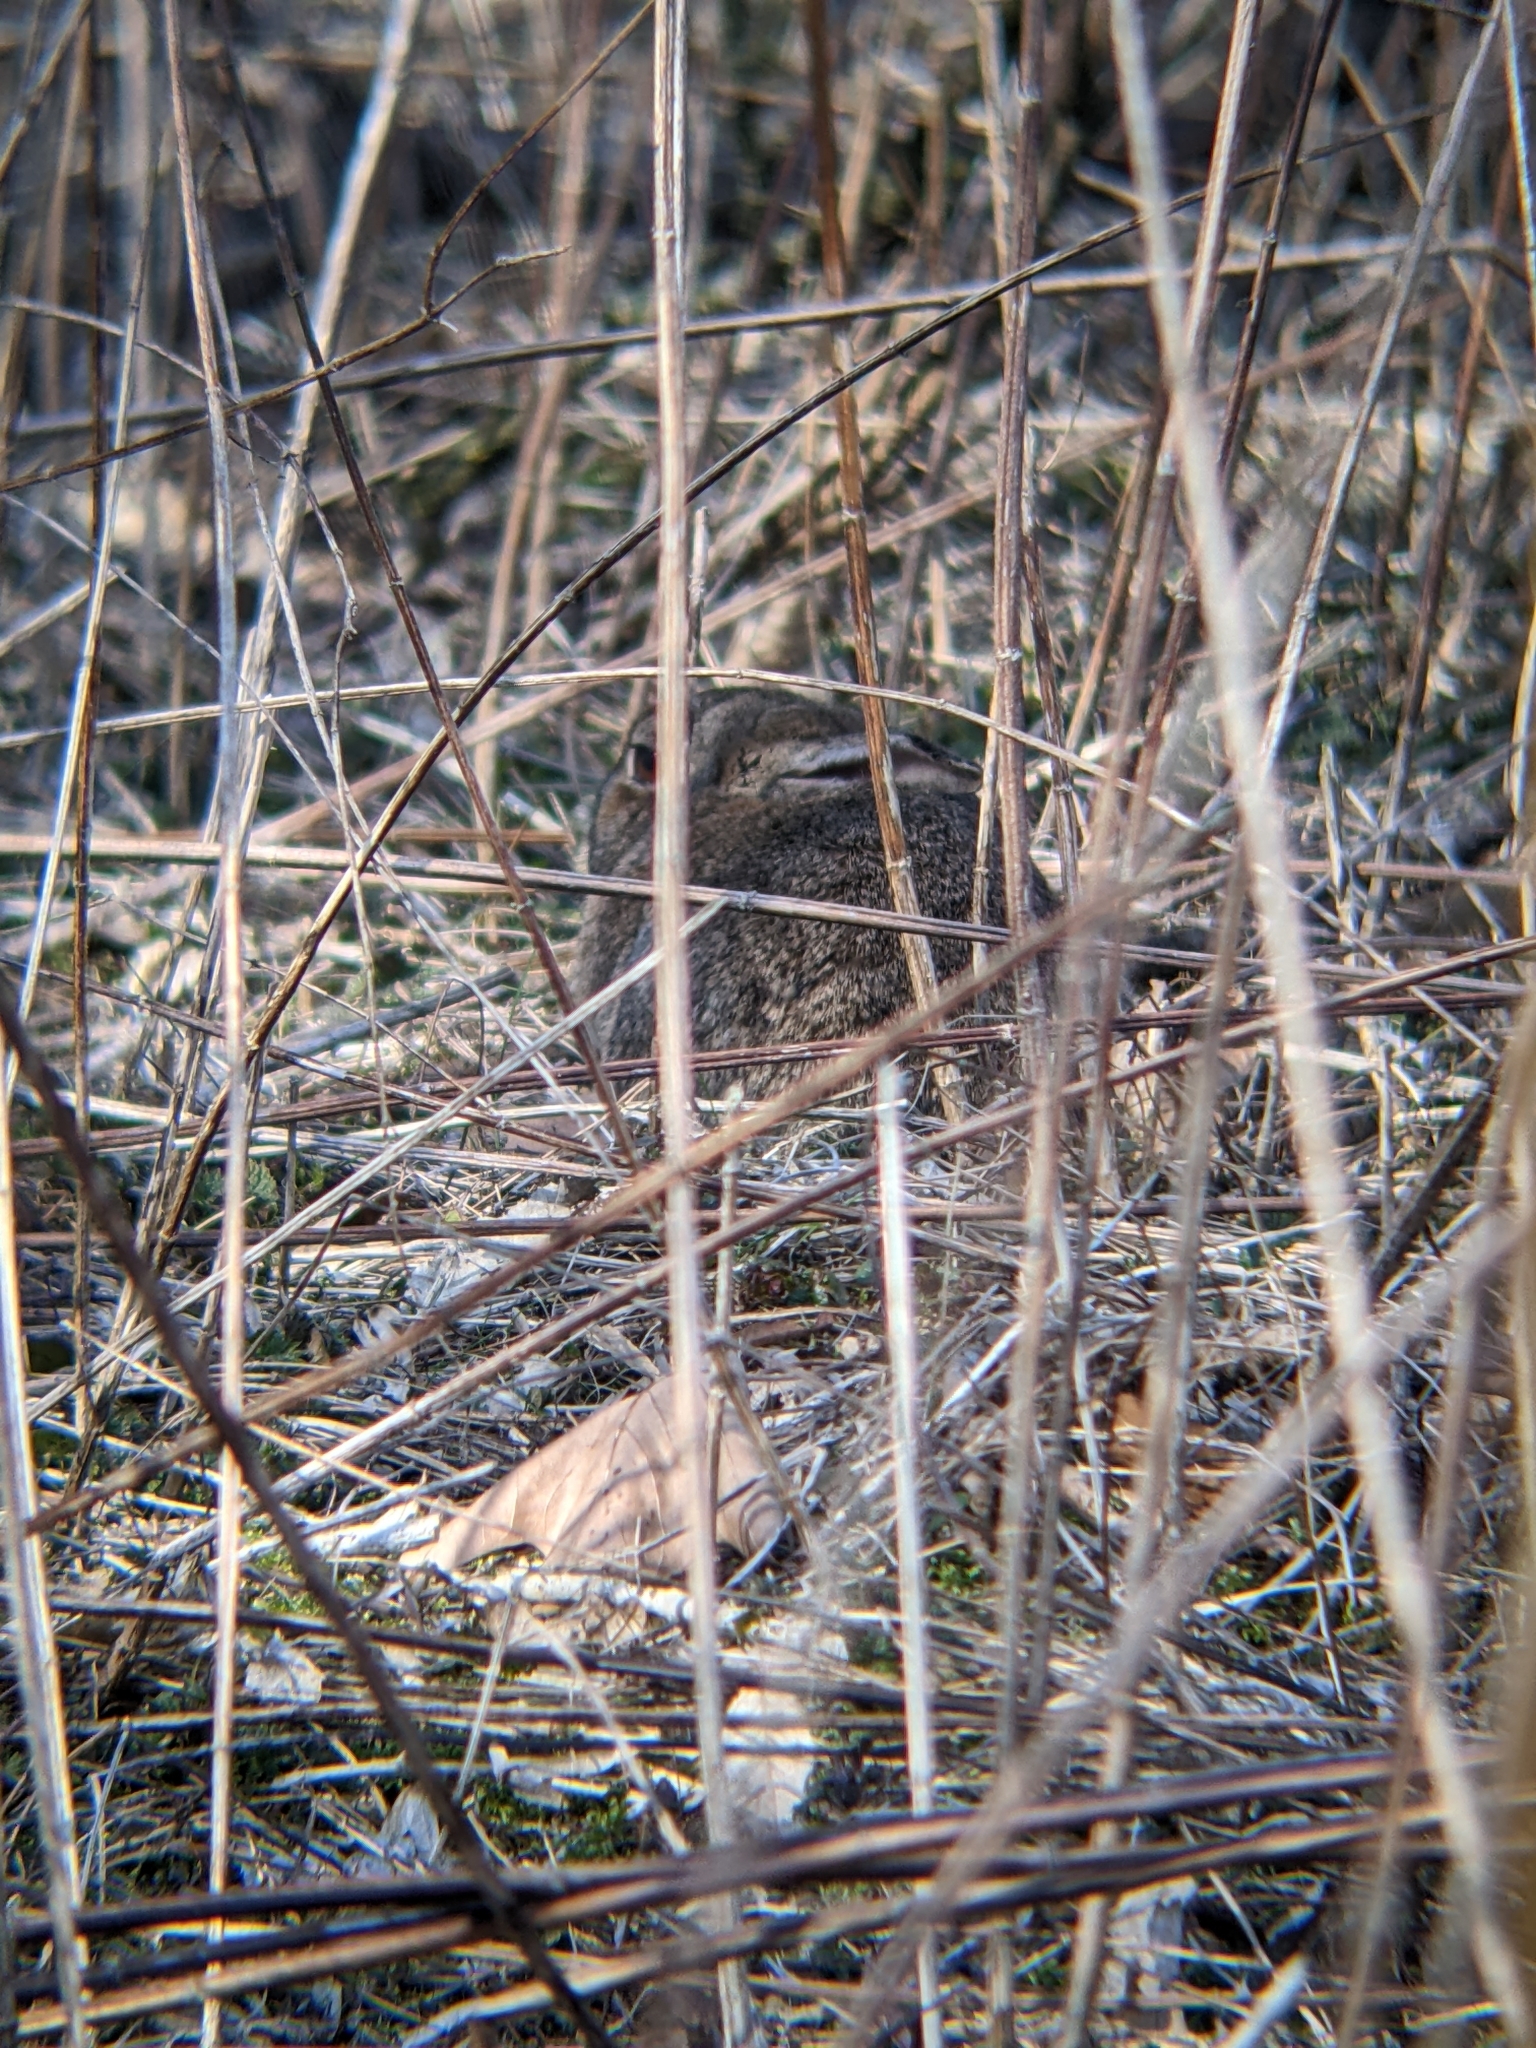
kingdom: Animalia
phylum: Chordata
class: Mammalia
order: Lagomorpha
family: Leporidae
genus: Oryctolagus
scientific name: Oryctolagus cuniculus
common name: European rabbit
